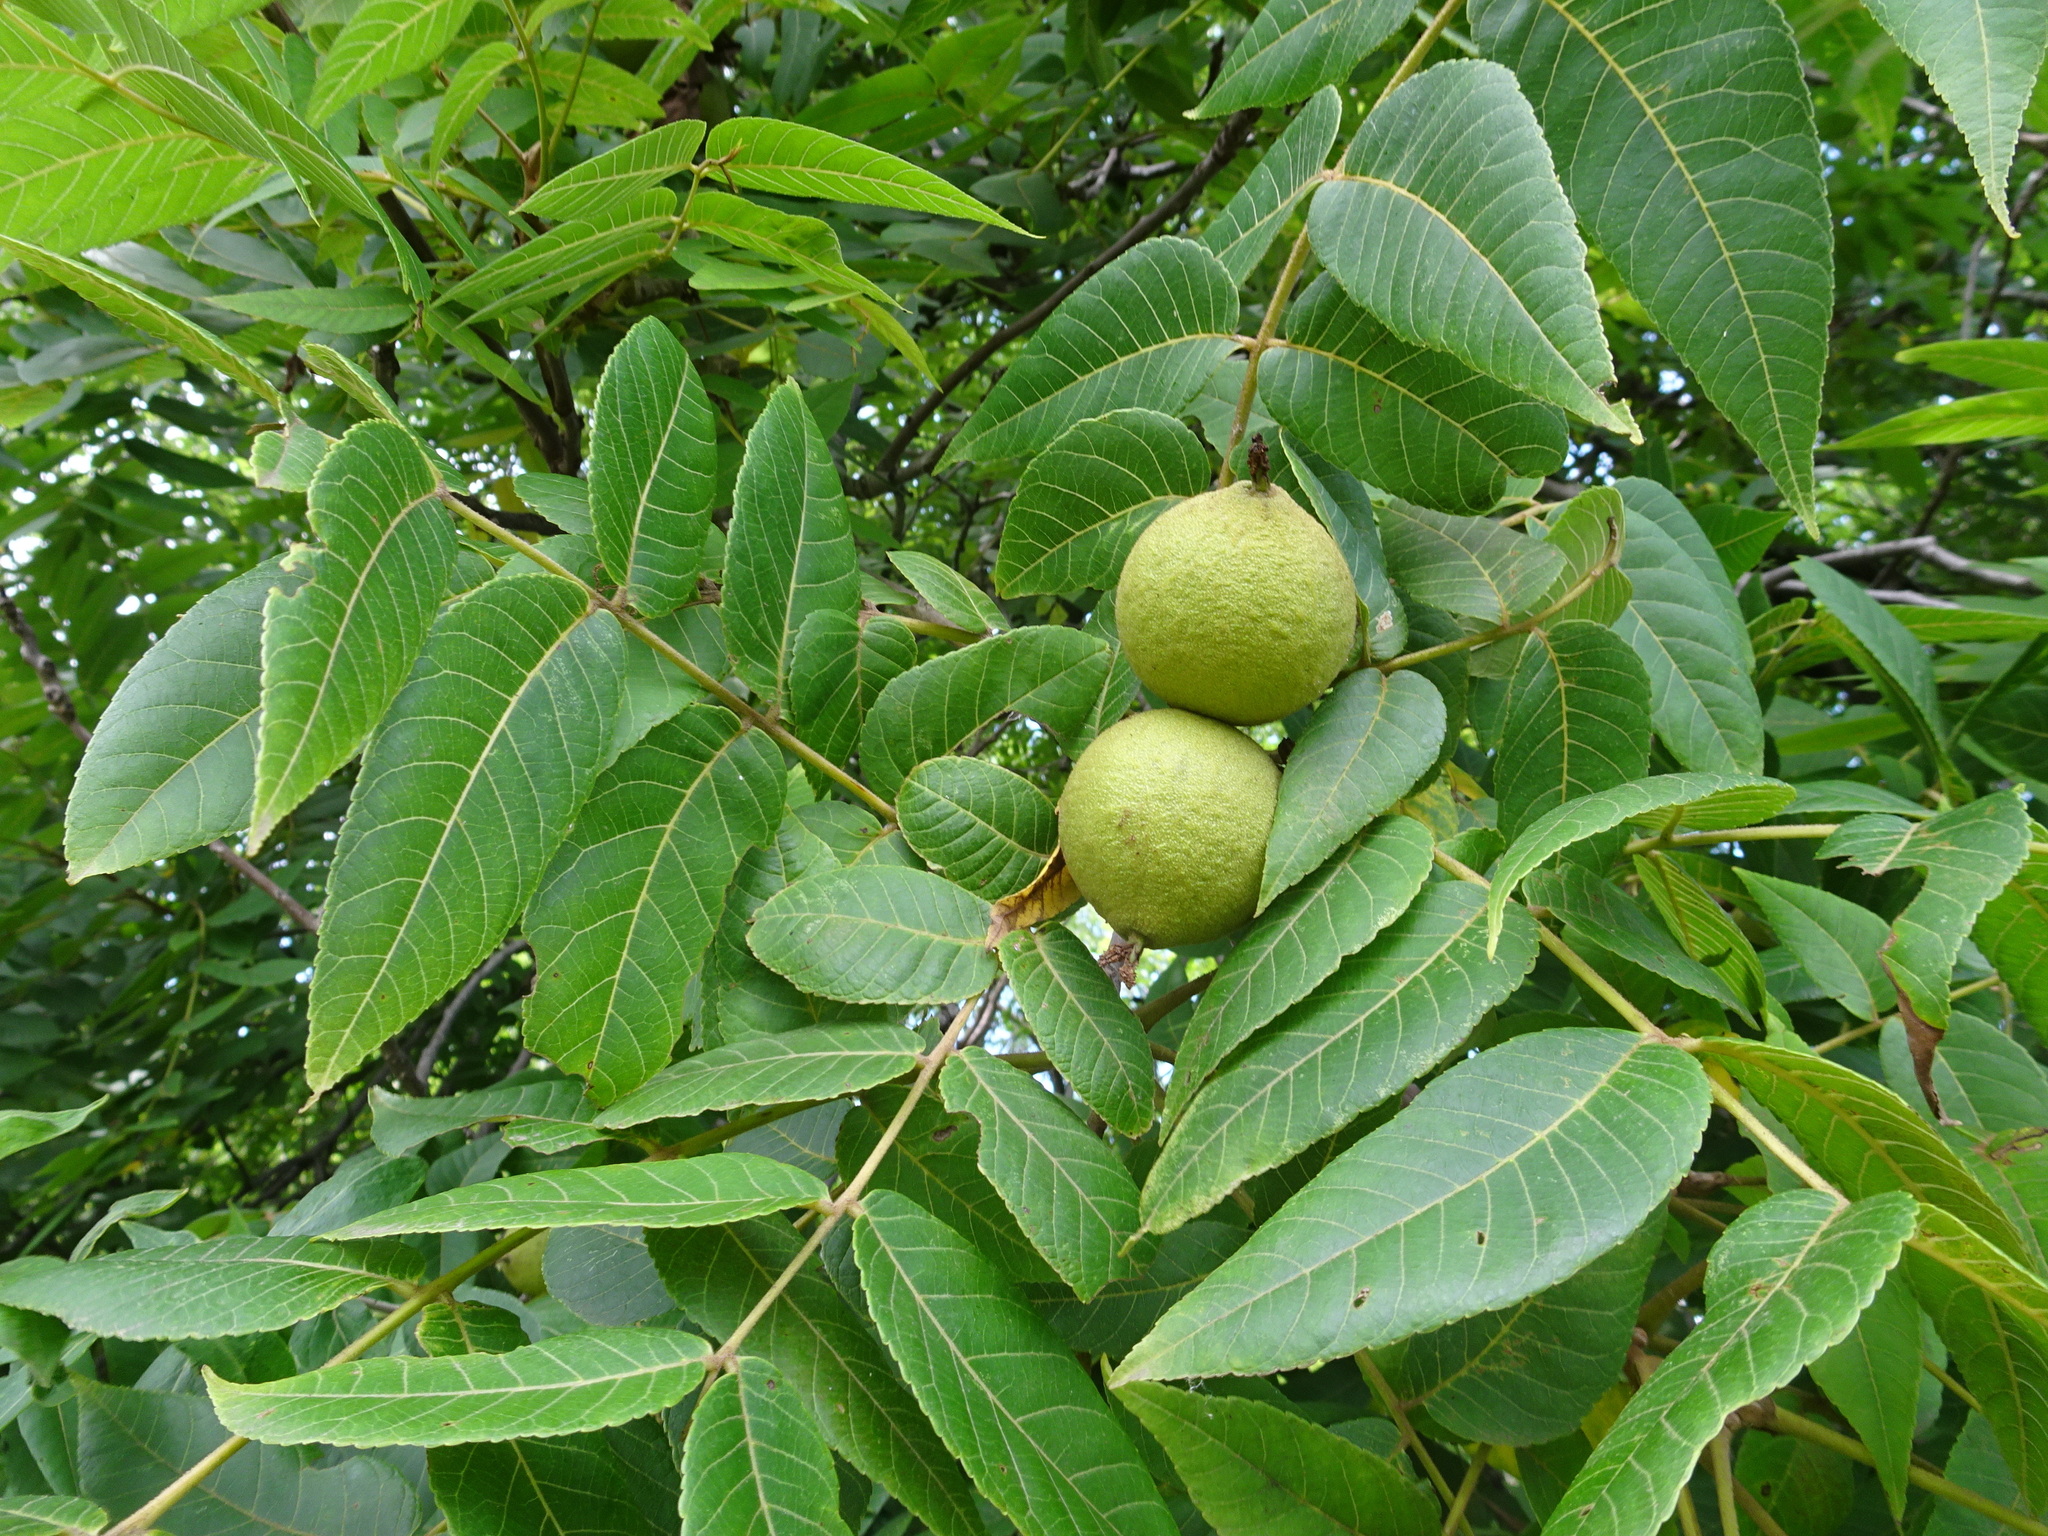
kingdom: Plantae
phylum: Tracheophyta
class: Magnoliopsida
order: Fagales
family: Juglandaceae
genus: Juglans
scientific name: Juglans nigra
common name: Black walnut
